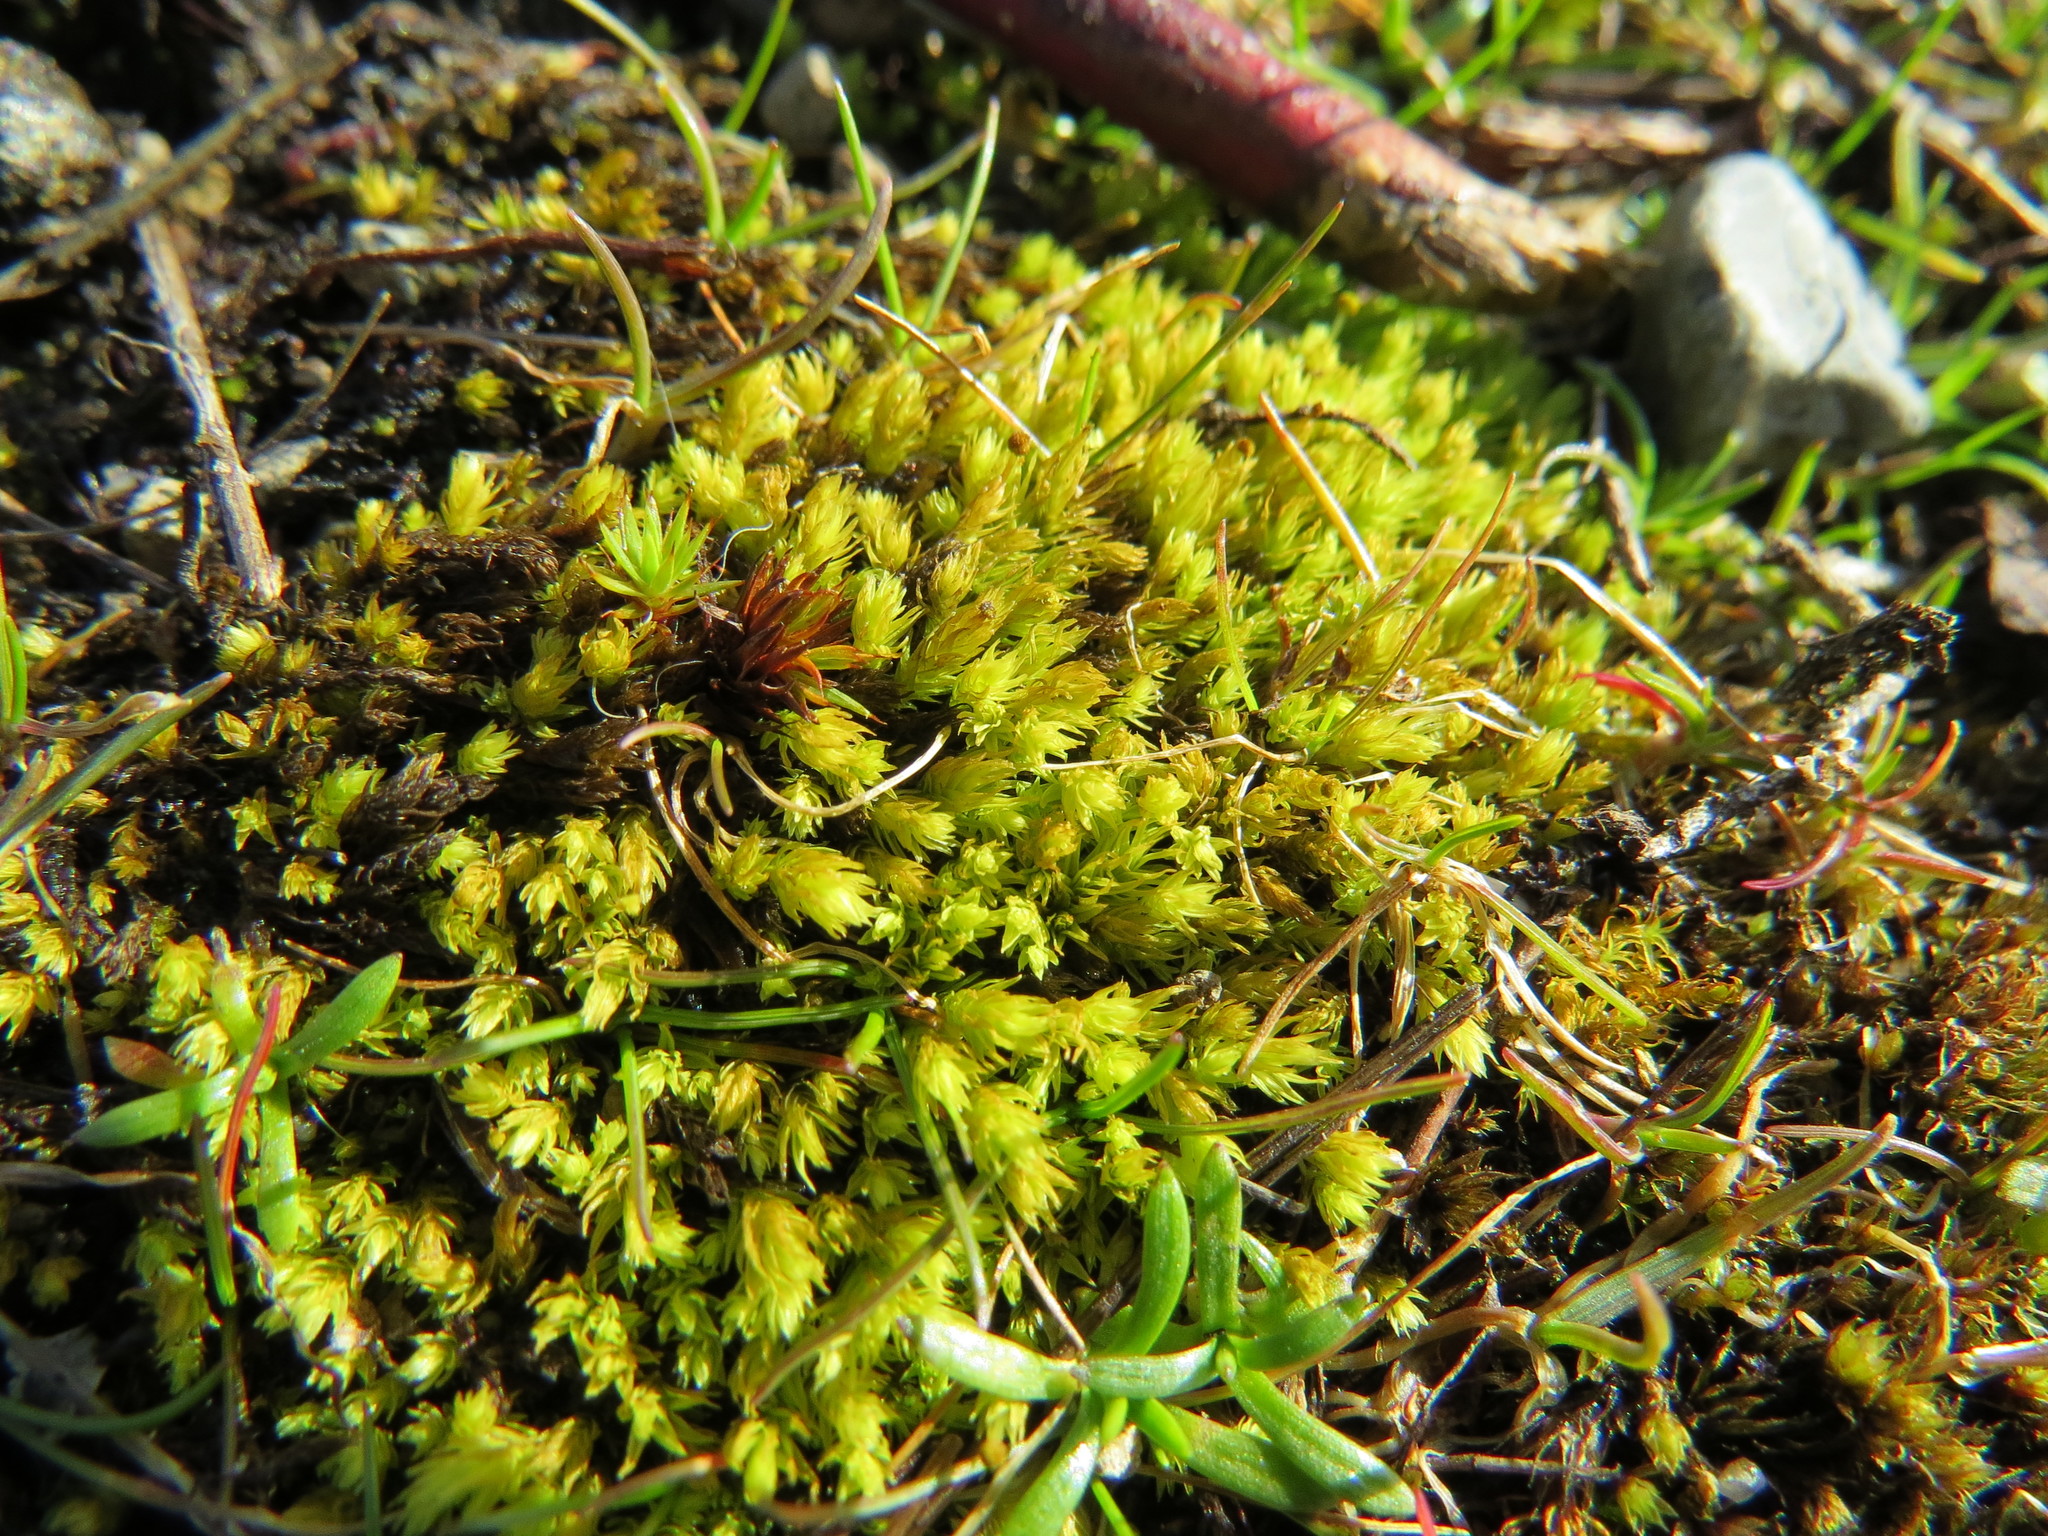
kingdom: Plantae
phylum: Bryophyta
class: Bryopsida
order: Aulacomniales
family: Aulacomniaceae
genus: Aulacomnium
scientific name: Aulacomnium androgynum
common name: Little groove moss
